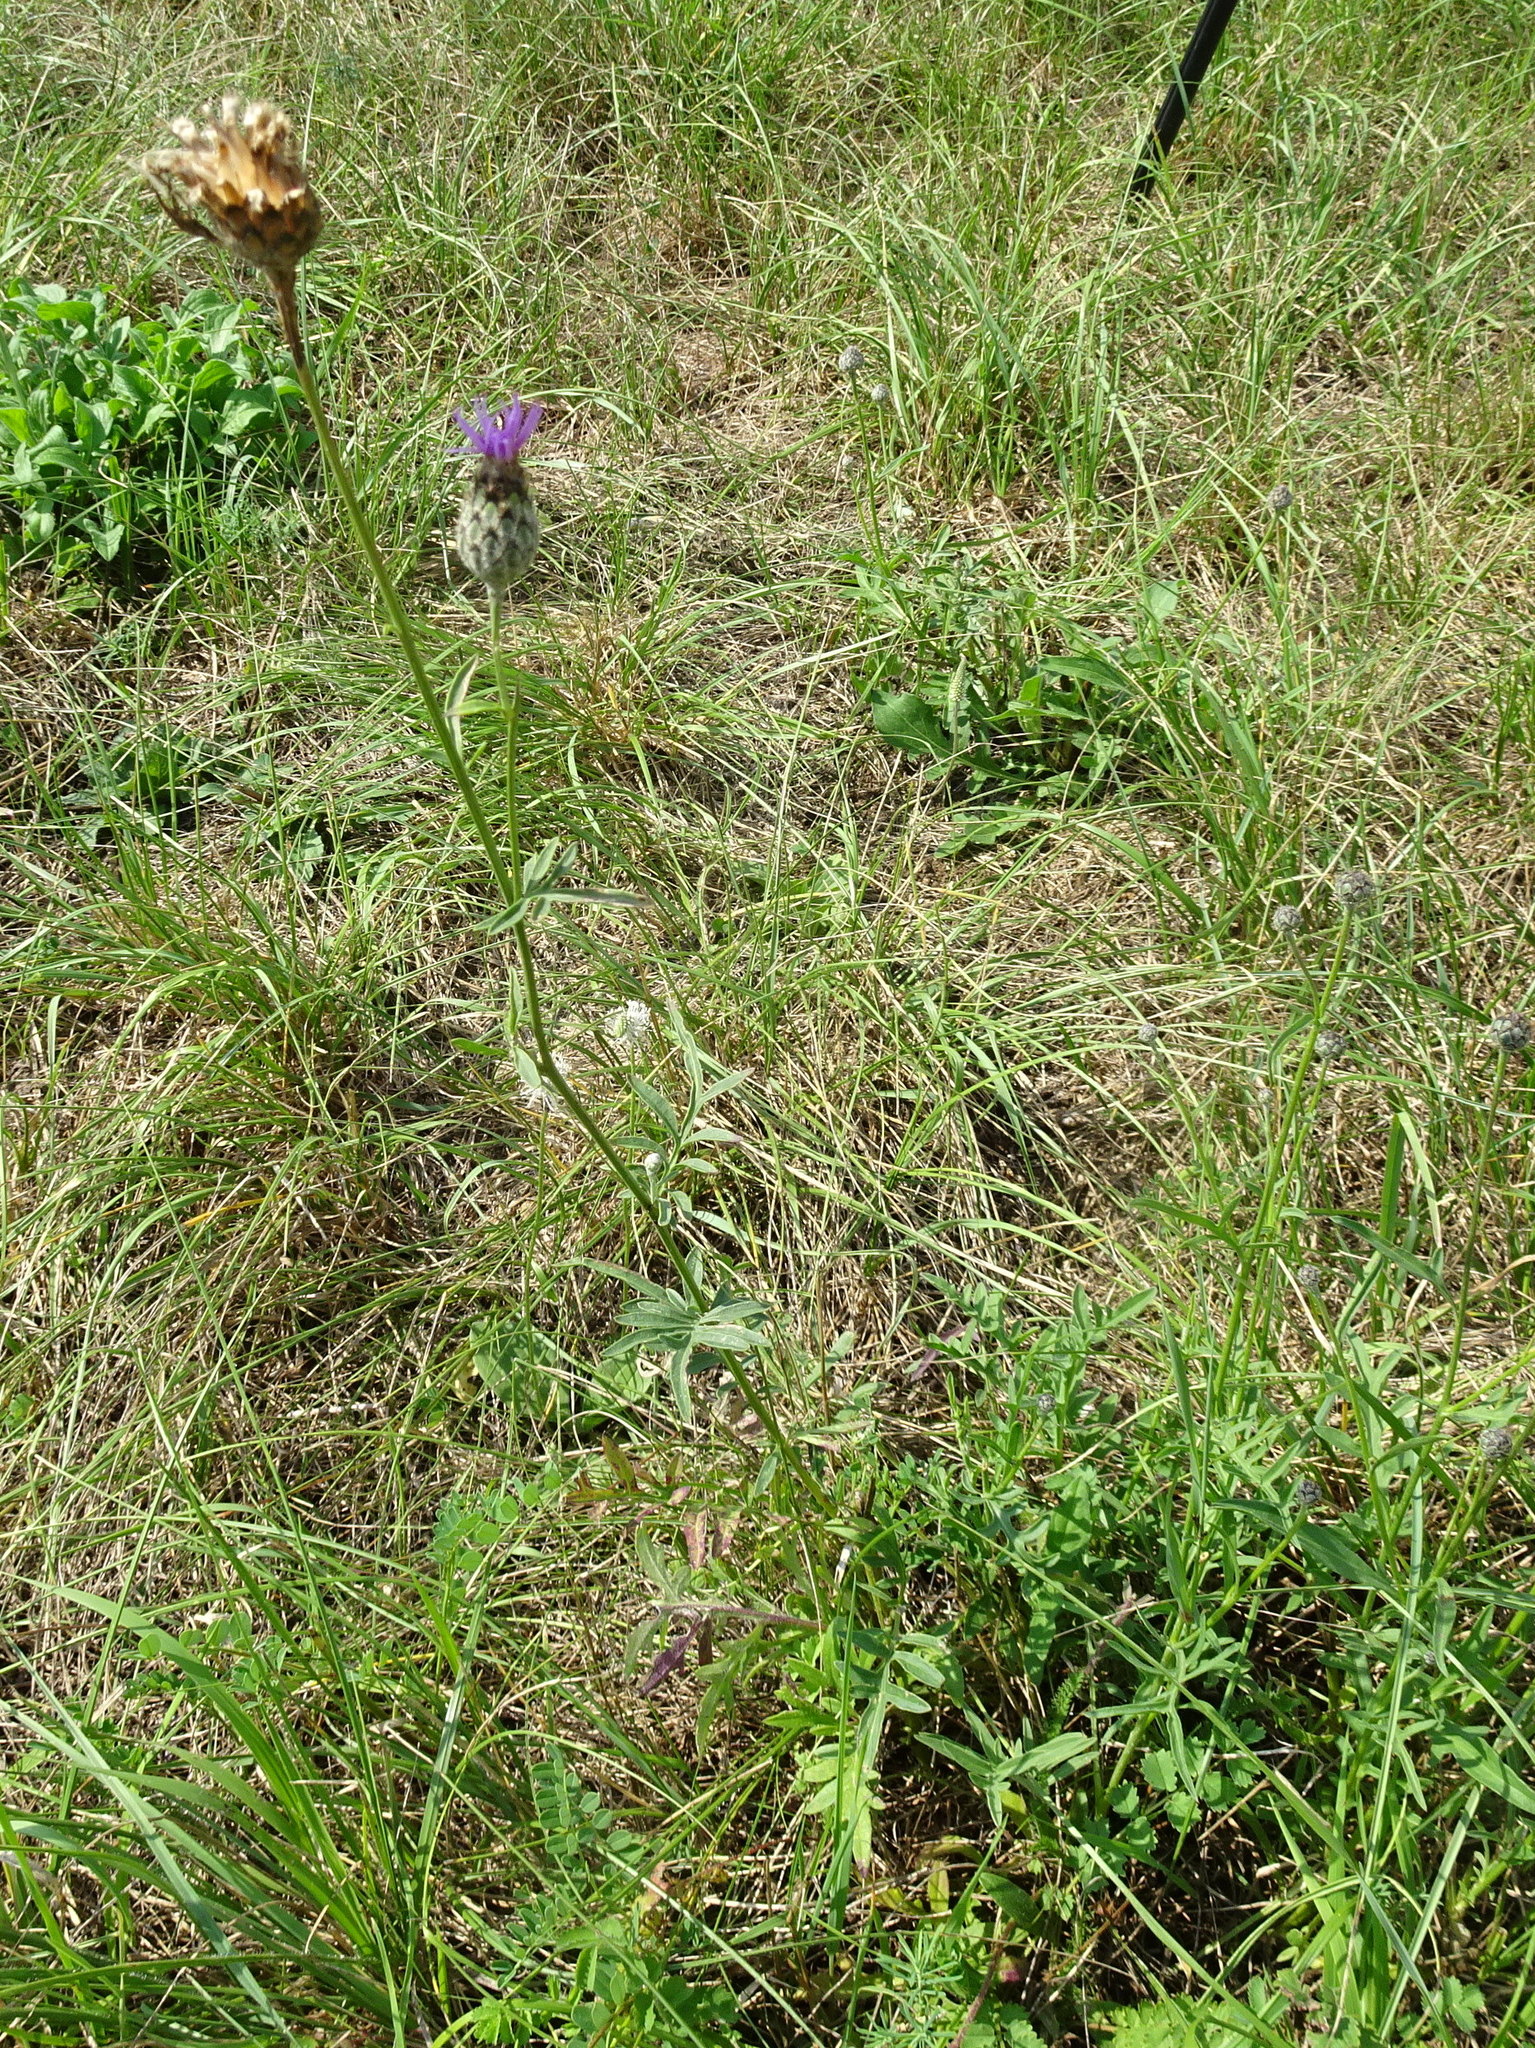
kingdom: Plantae
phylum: Tracheophyta
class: Magnoliopsida
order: Asterales
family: Asteraceae
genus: Centaurea
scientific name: Centaurea scabiosa
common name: Greater knapweed
